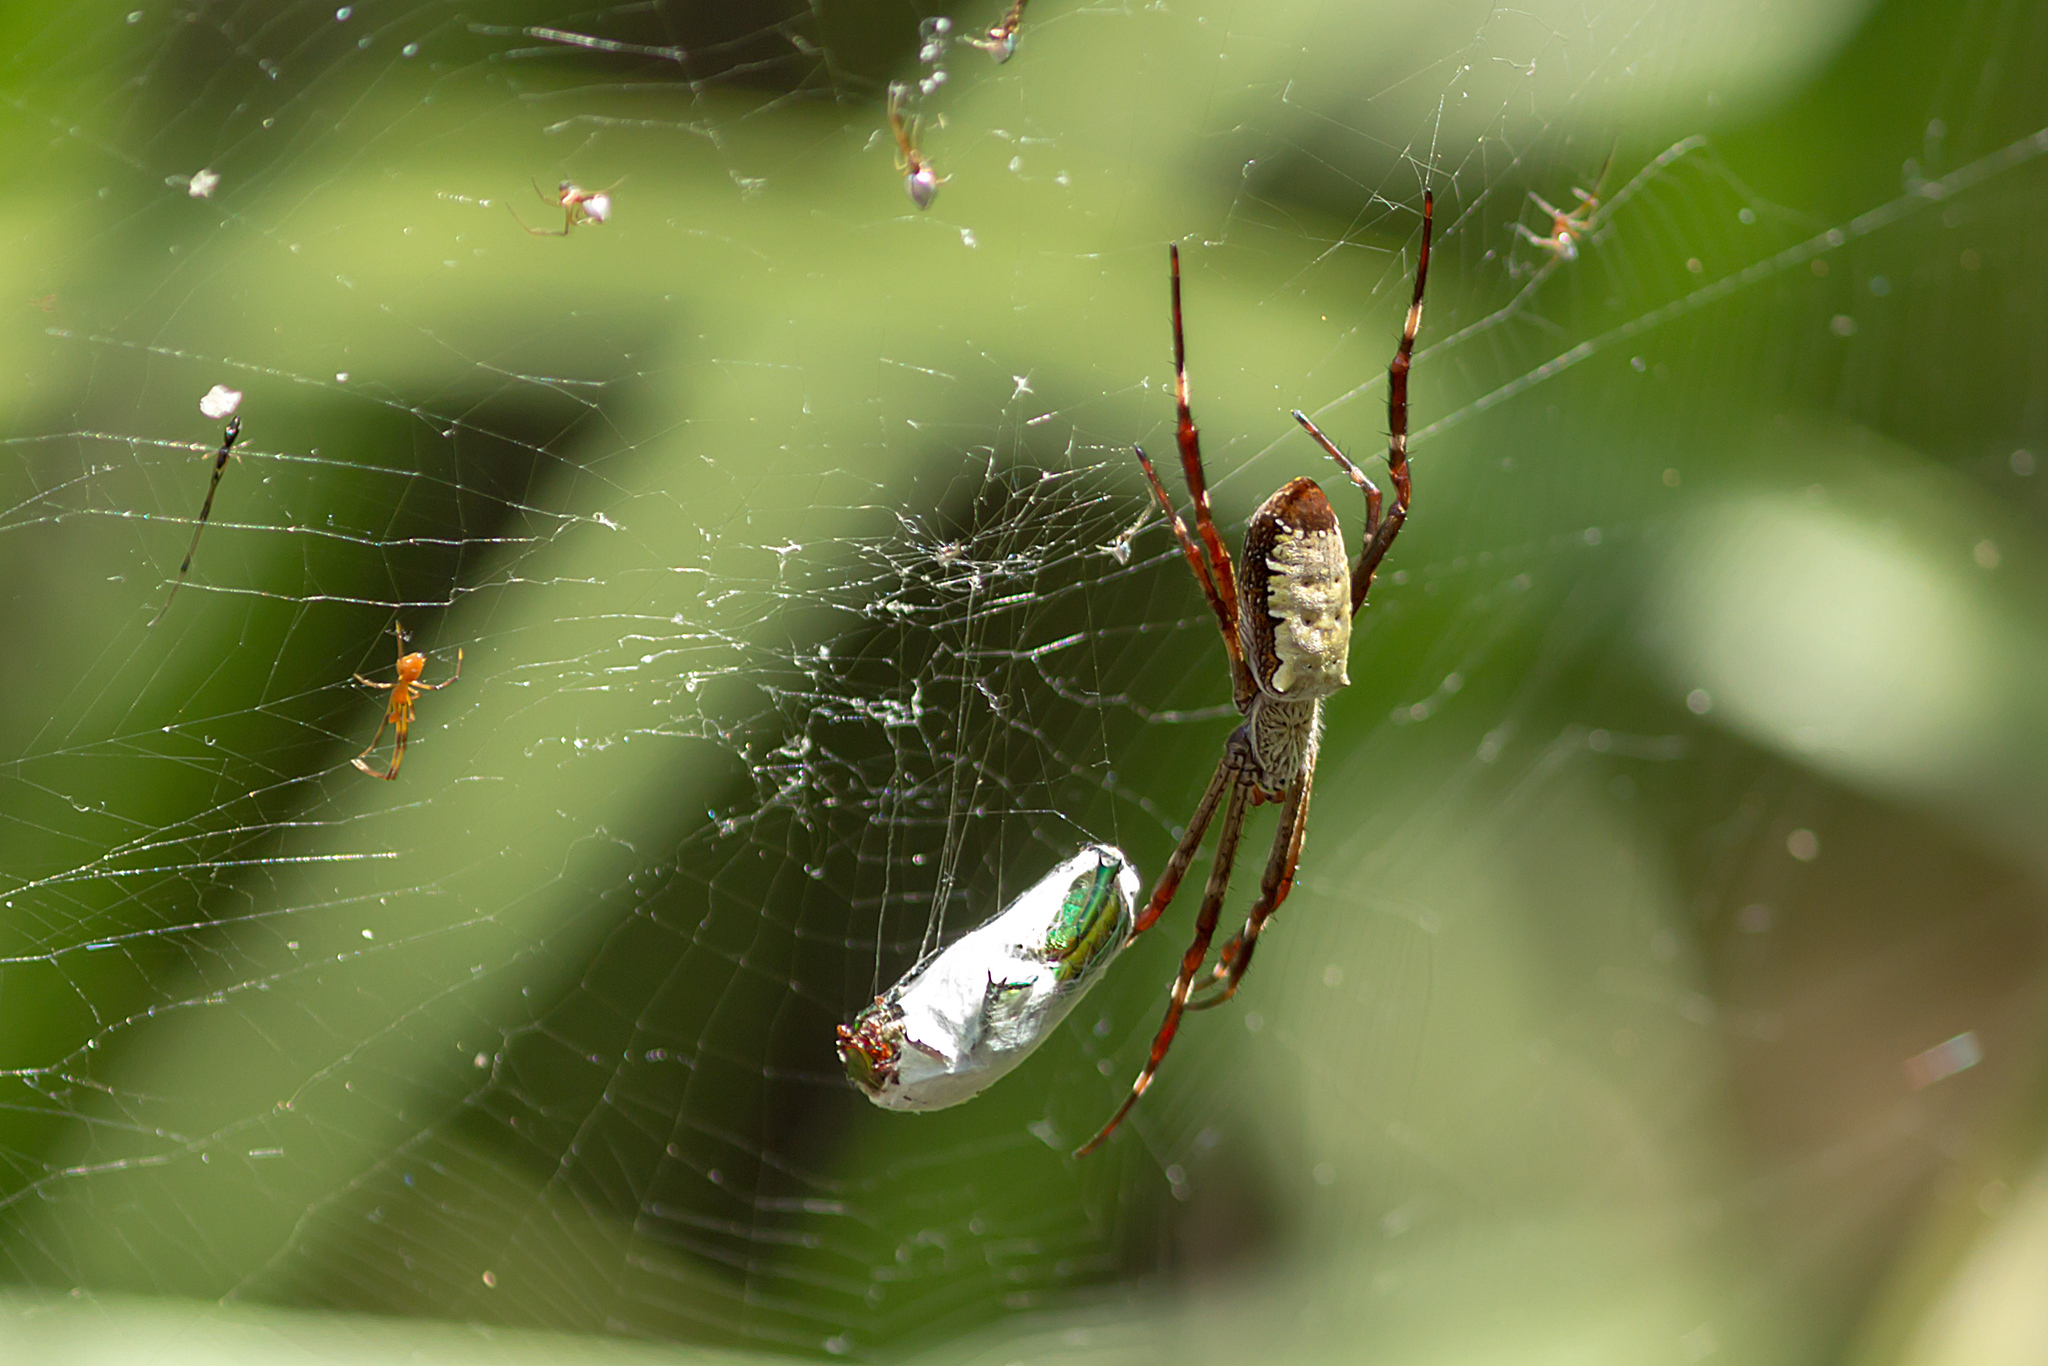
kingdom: Animalia
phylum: Arthropoda
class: Arachnida
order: Araneae
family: Araneidae
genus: Argiope
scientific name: Argiope radon
